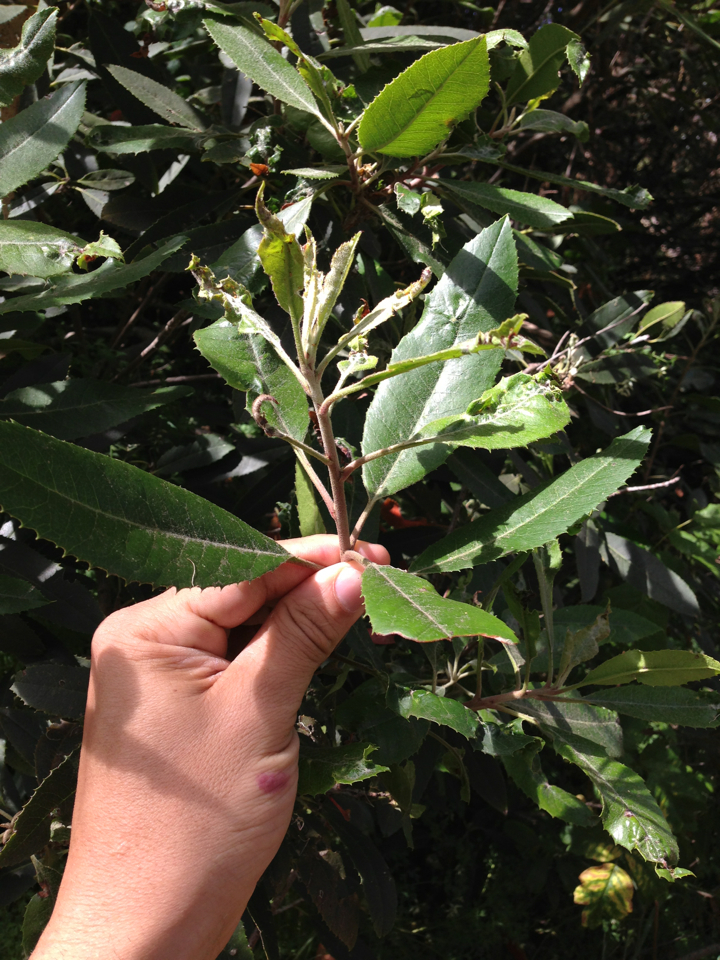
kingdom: Plantae
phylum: Tracheophyta
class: Magnoliopsida
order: Rosales
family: Rosaceae
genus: Heteromeles
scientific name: Heteromeles arbutifolia
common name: California-holly
